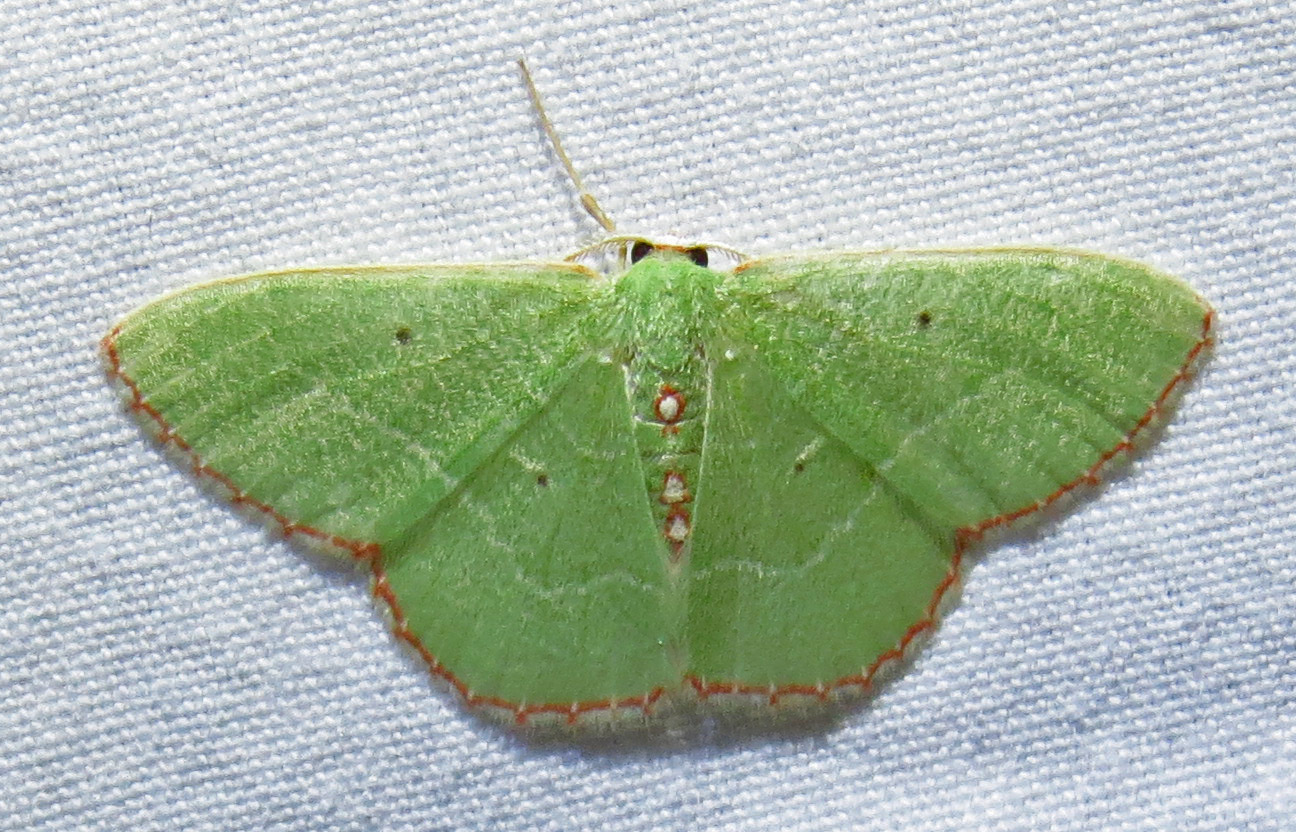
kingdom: Animalia
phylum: Arthropoda
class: Insecta
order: Lepidoptera
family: Geometridae
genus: Nemoria
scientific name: Nemoria lixaria
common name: Red-bordered emerald
